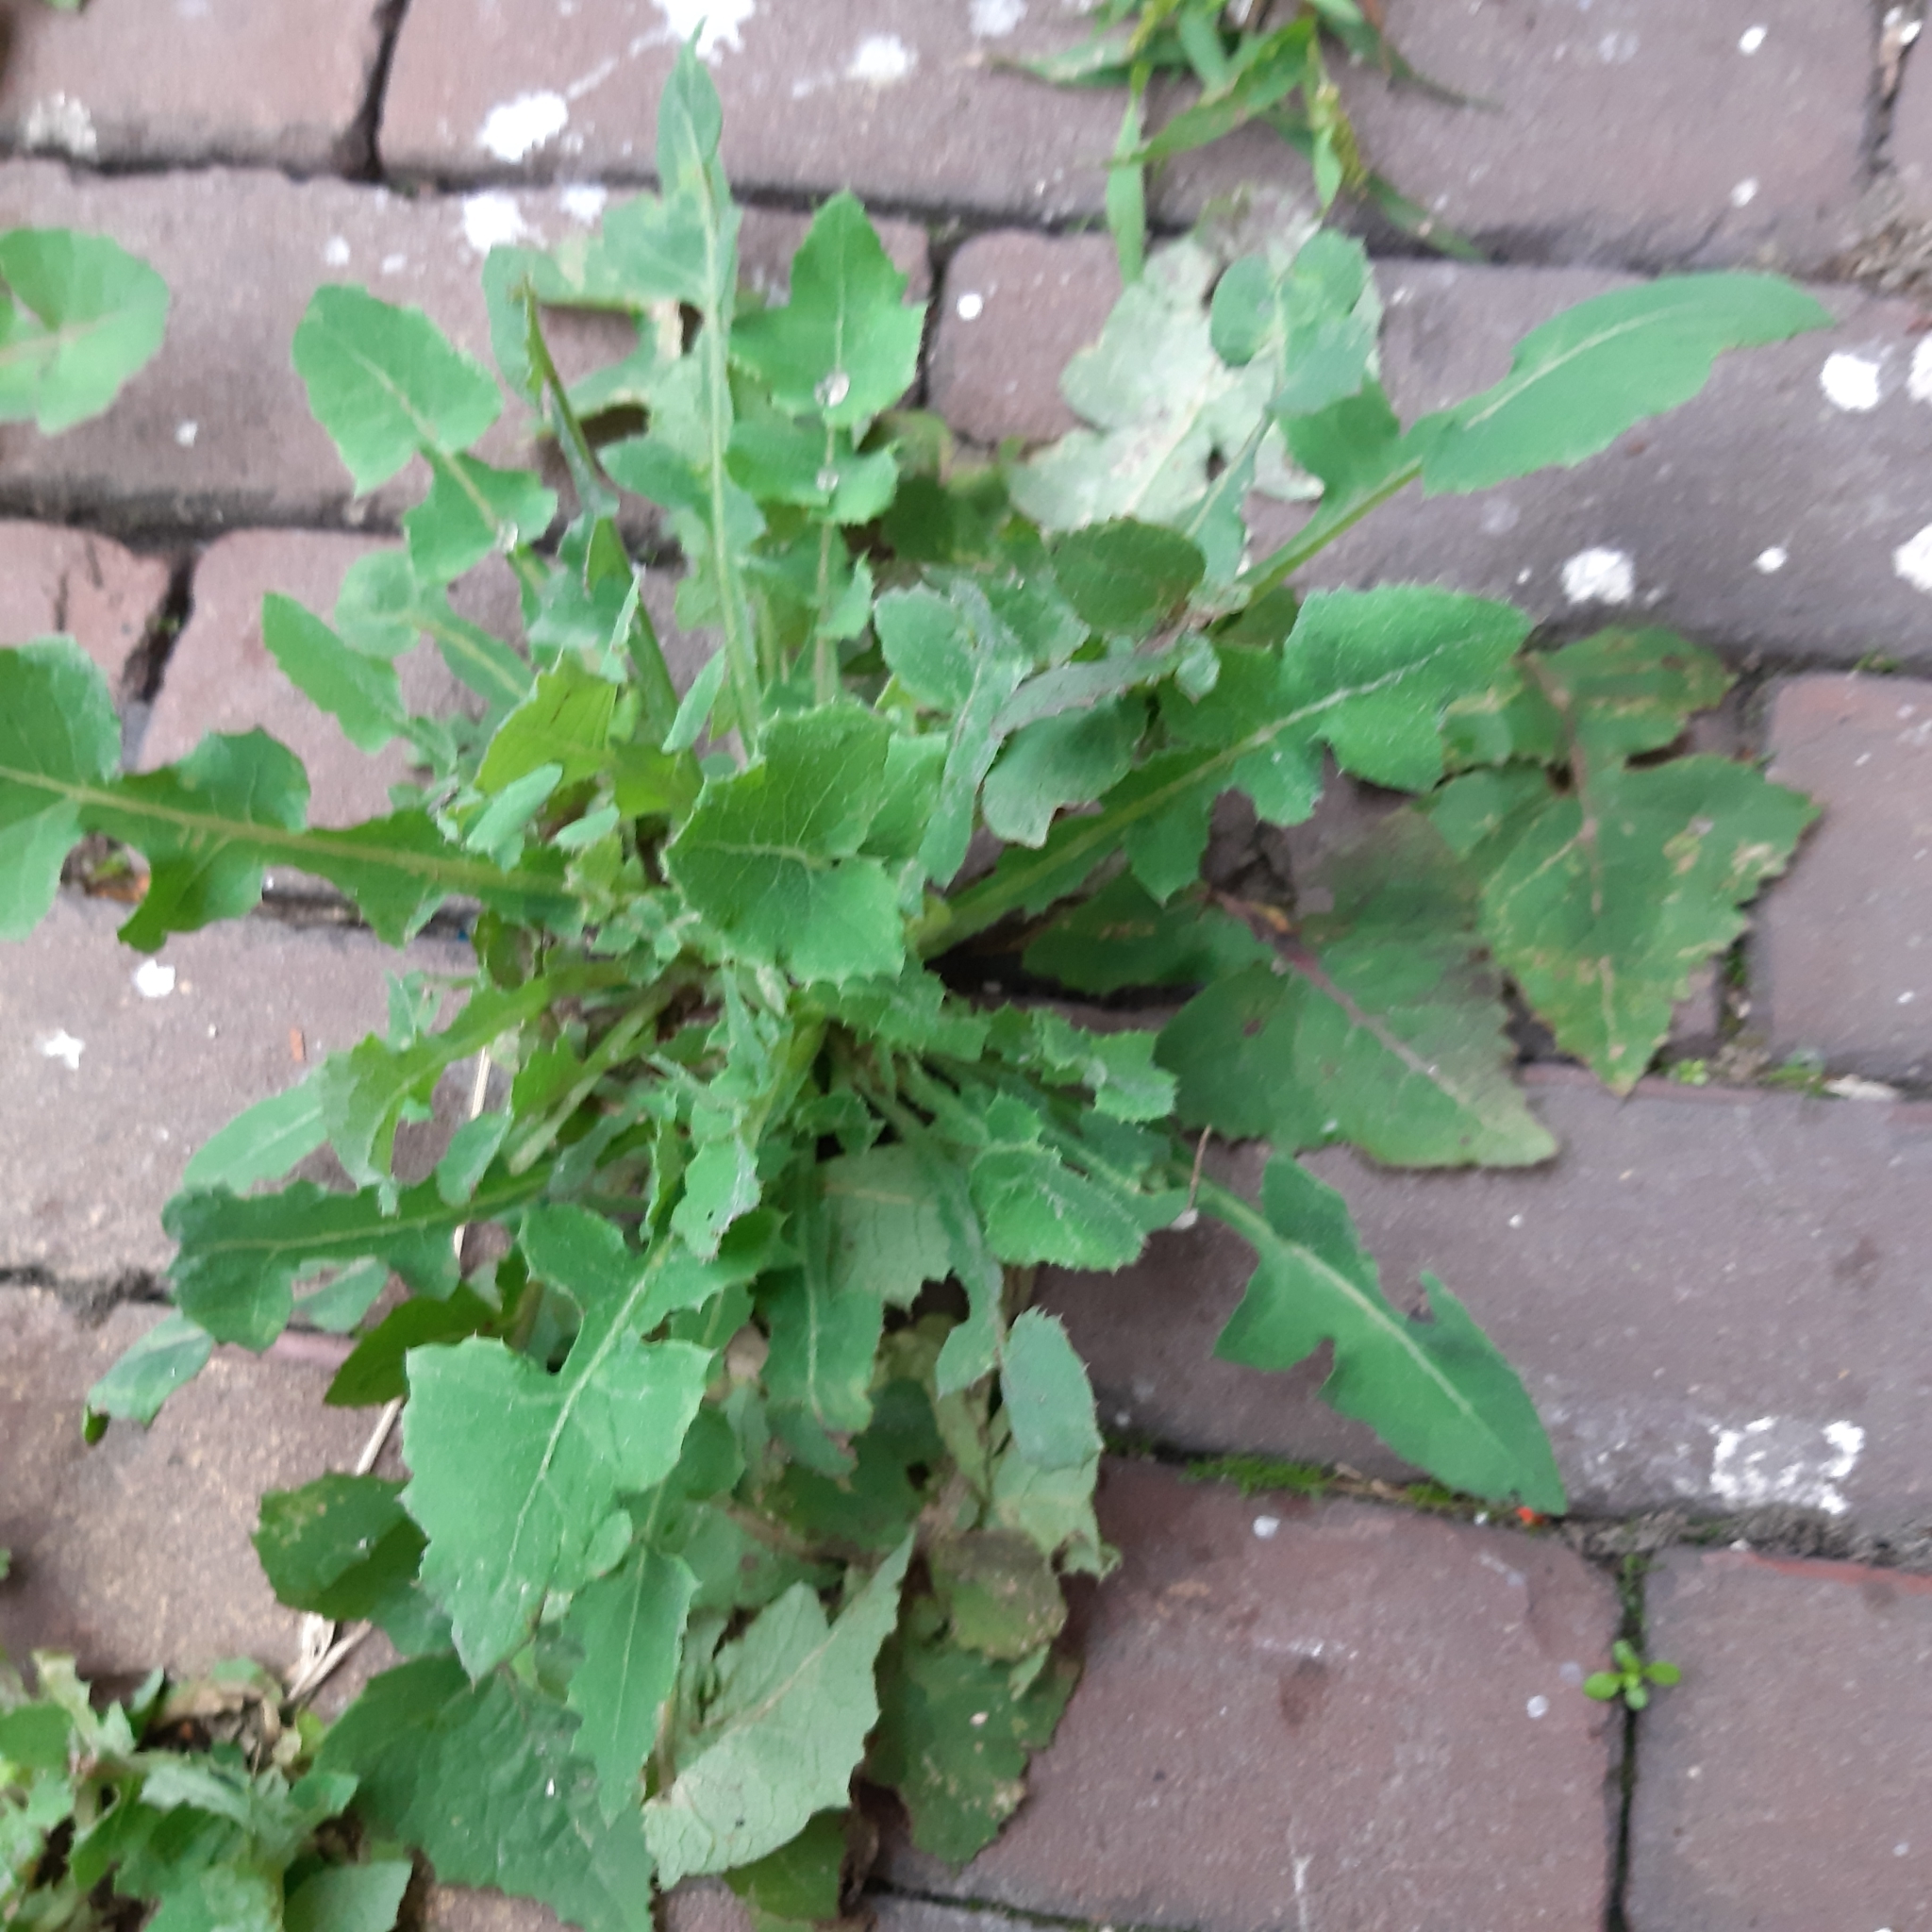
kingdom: Plantae
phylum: Tracheophyta
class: Magnoliopsida
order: Asterales
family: Asteraceae
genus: Sonchus
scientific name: Sonchus oleraceus
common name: Common sowthistle
